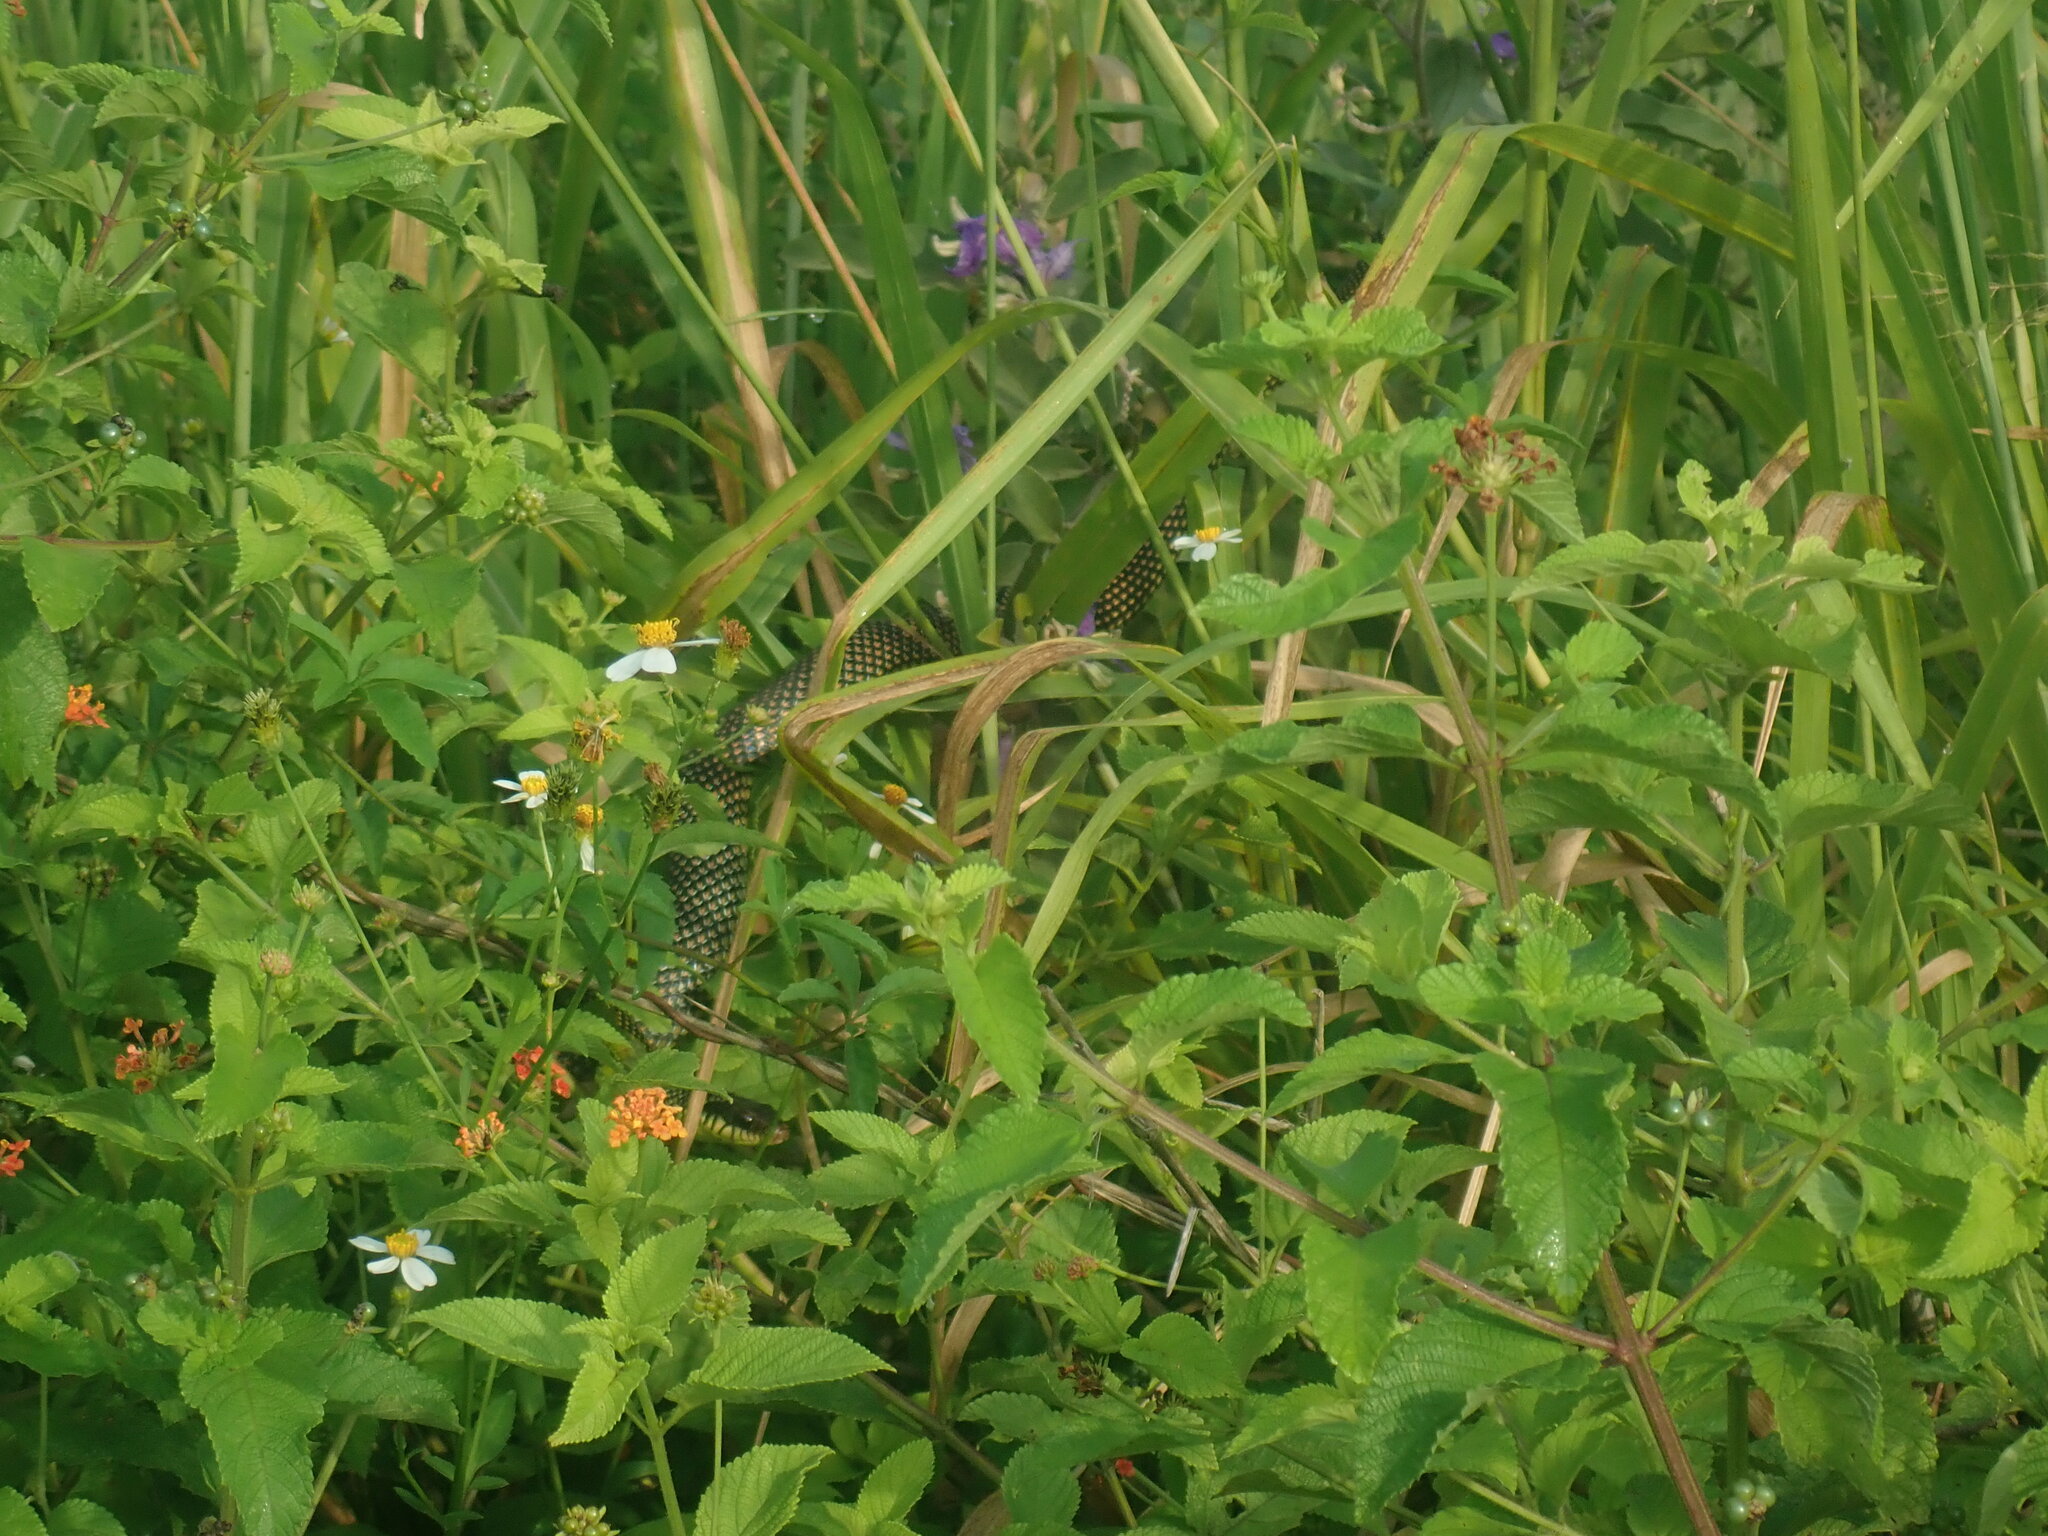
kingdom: Animalia
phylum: Chordata
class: Squamata
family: Colubridae
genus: Drymobius
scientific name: Drymobius margaritiferus
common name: Central american speckled racer
